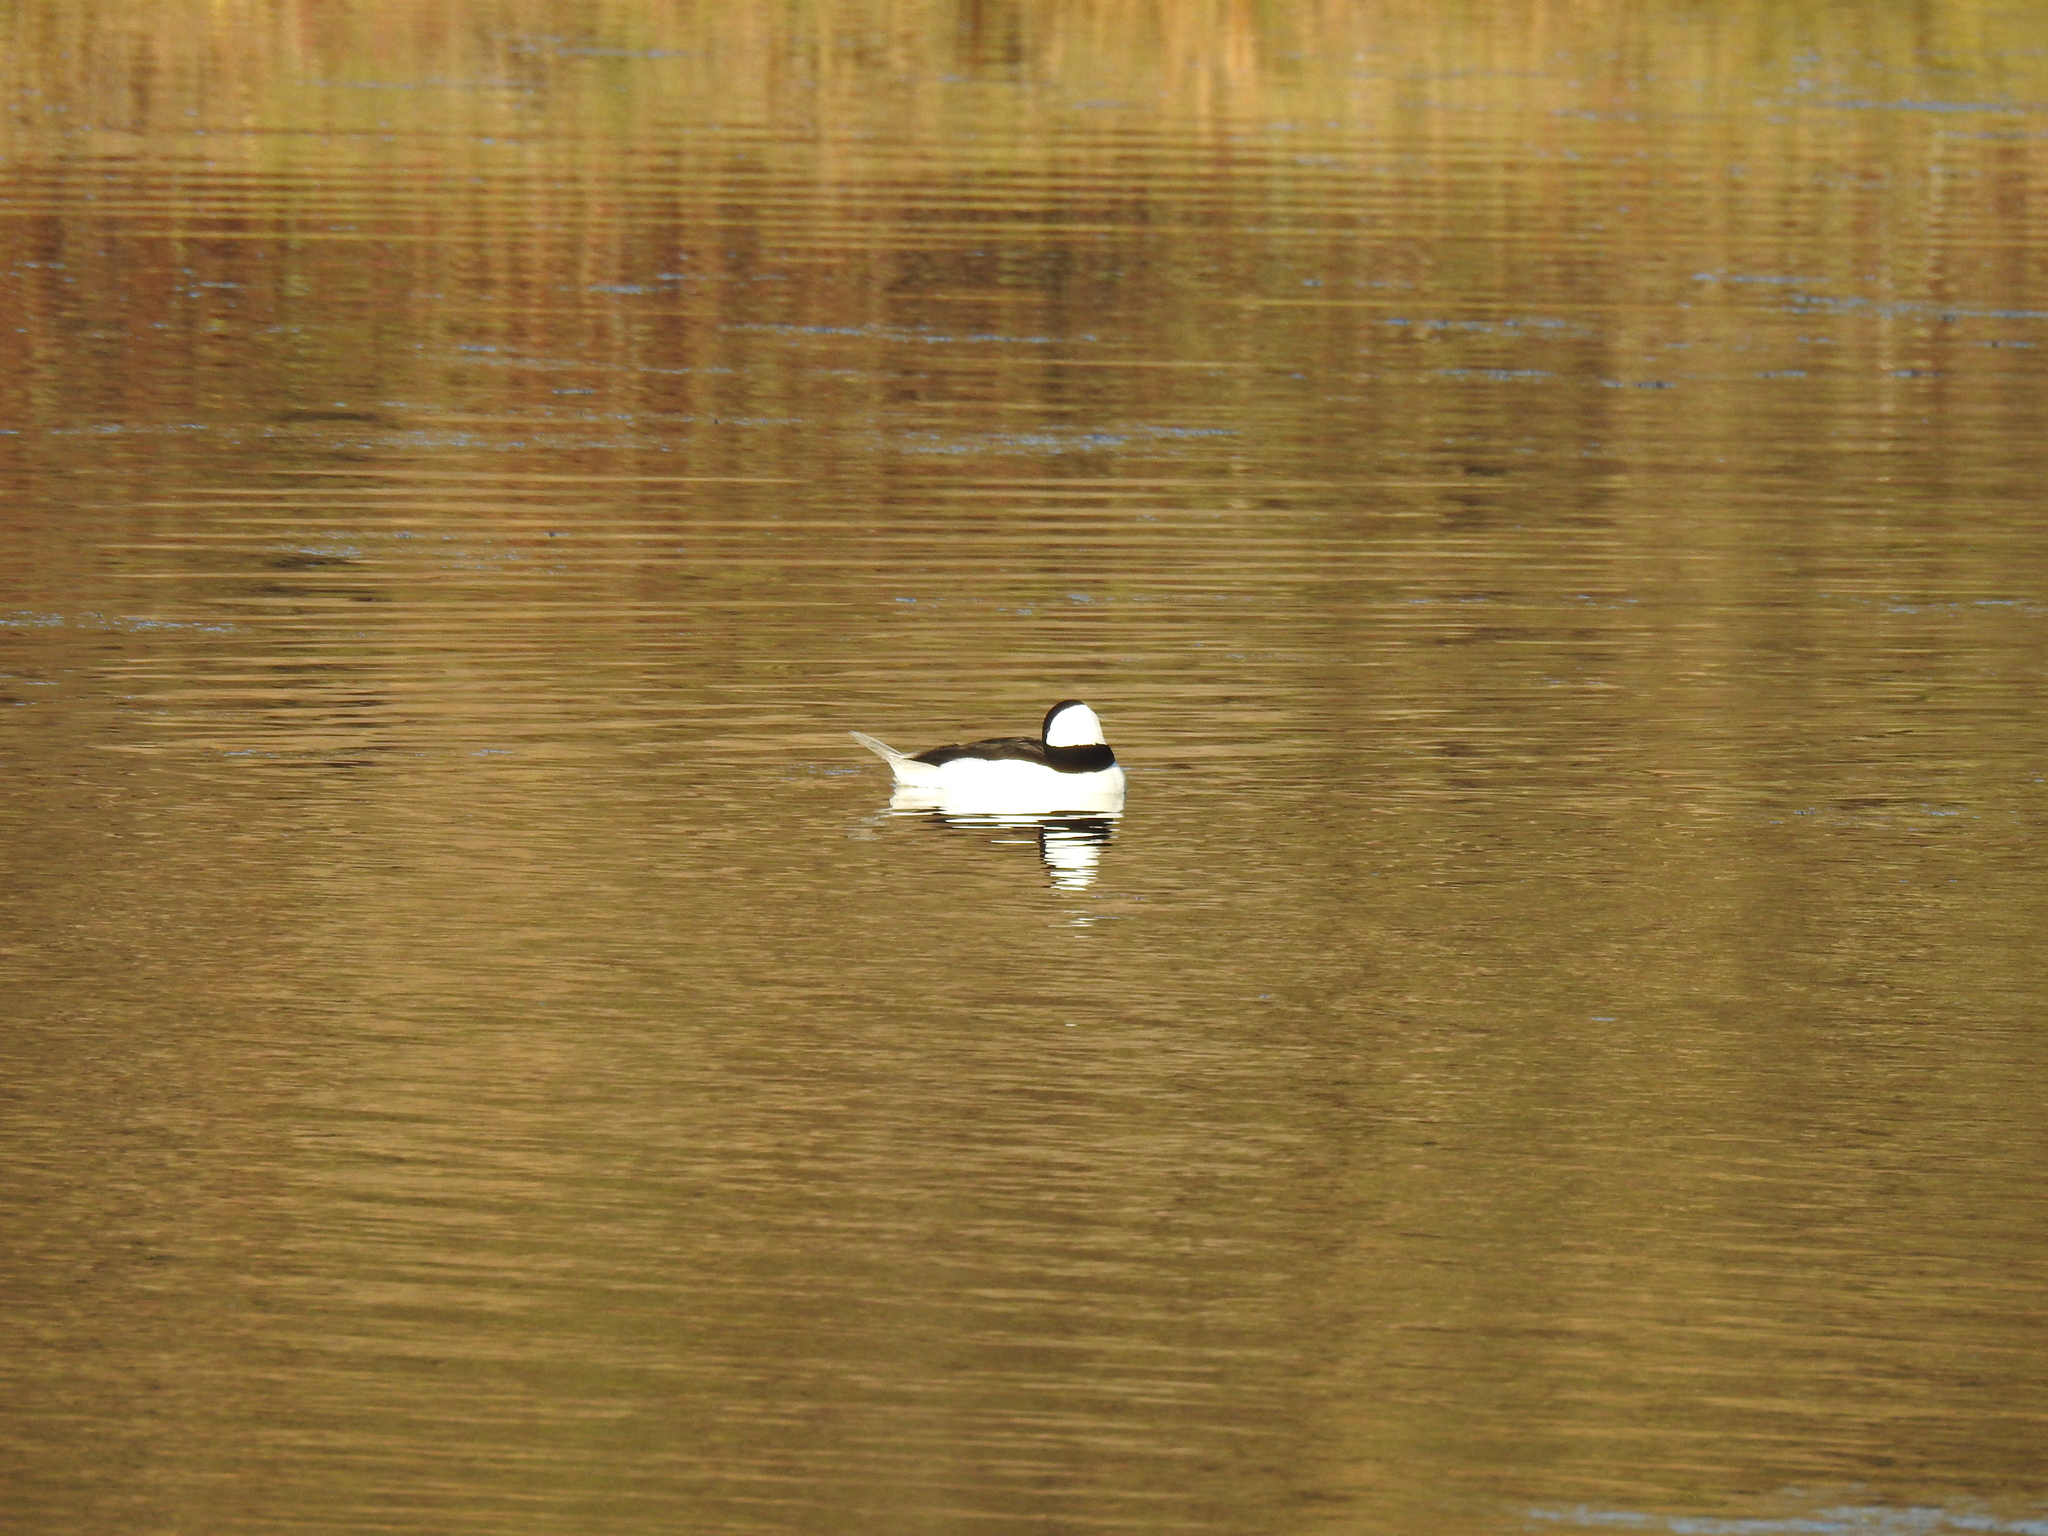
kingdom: Animalia
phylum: Chordata
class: Aves
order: Anseriformes
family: Anatidae
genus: Bucephala
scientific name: Bucephala albeola
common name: Bufflehead
